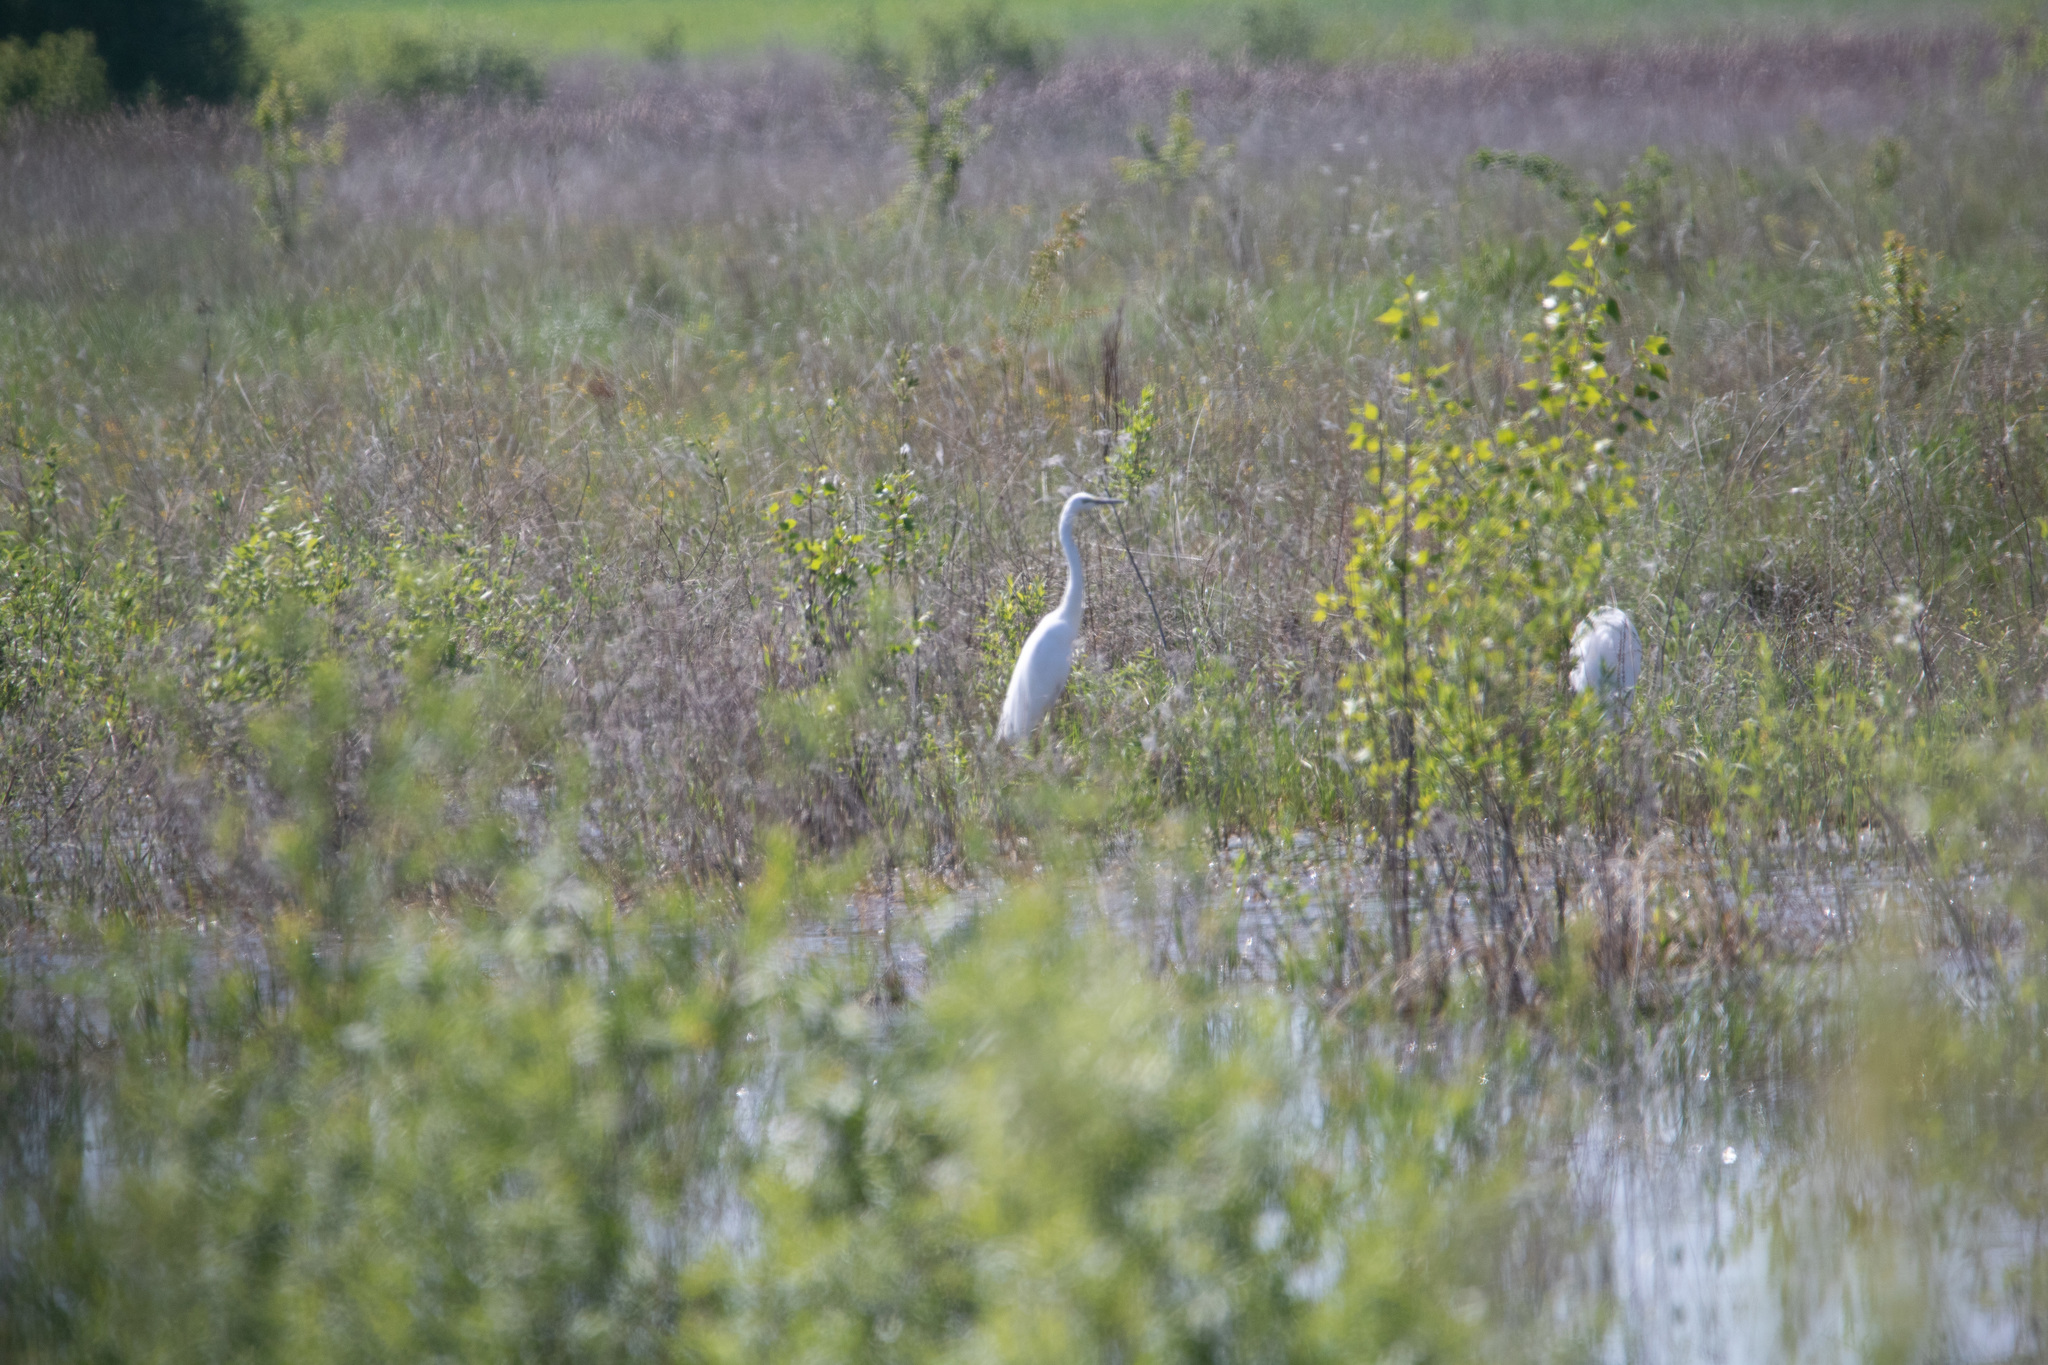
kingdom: Animalia
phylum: Chordata
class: Aves
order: Pelecaniformes
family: Ardeidae
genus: Ardea
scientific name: Ardea alba
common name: Great egret
